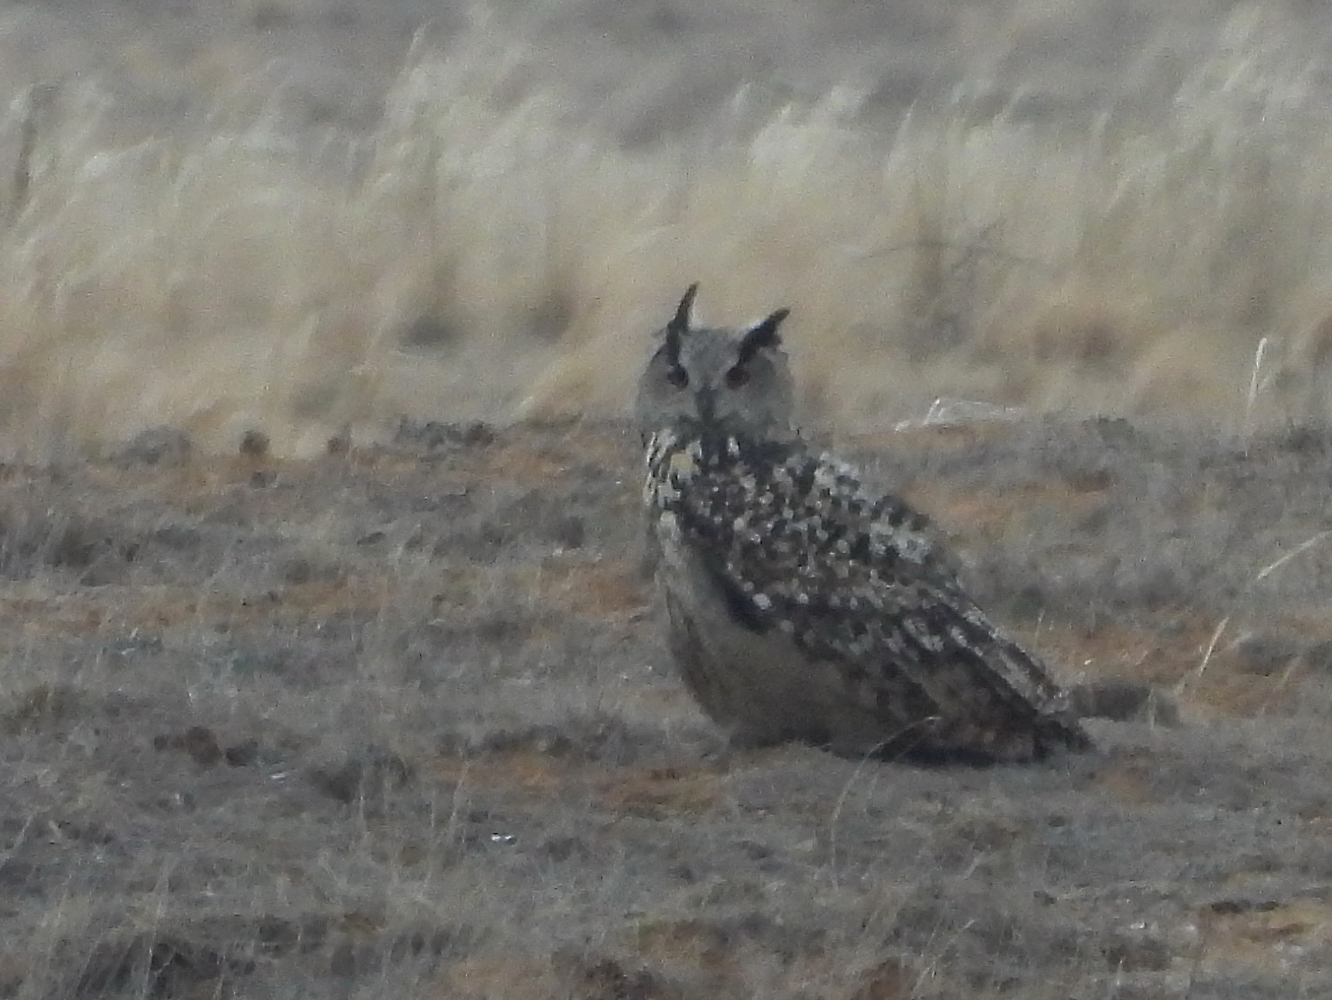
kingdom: Animalia
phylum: Chordata
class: Aves
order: Strigiformes
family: Strigidae
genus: Bubo
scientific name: Bubo bubo
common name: Eurasian eagle-owl
